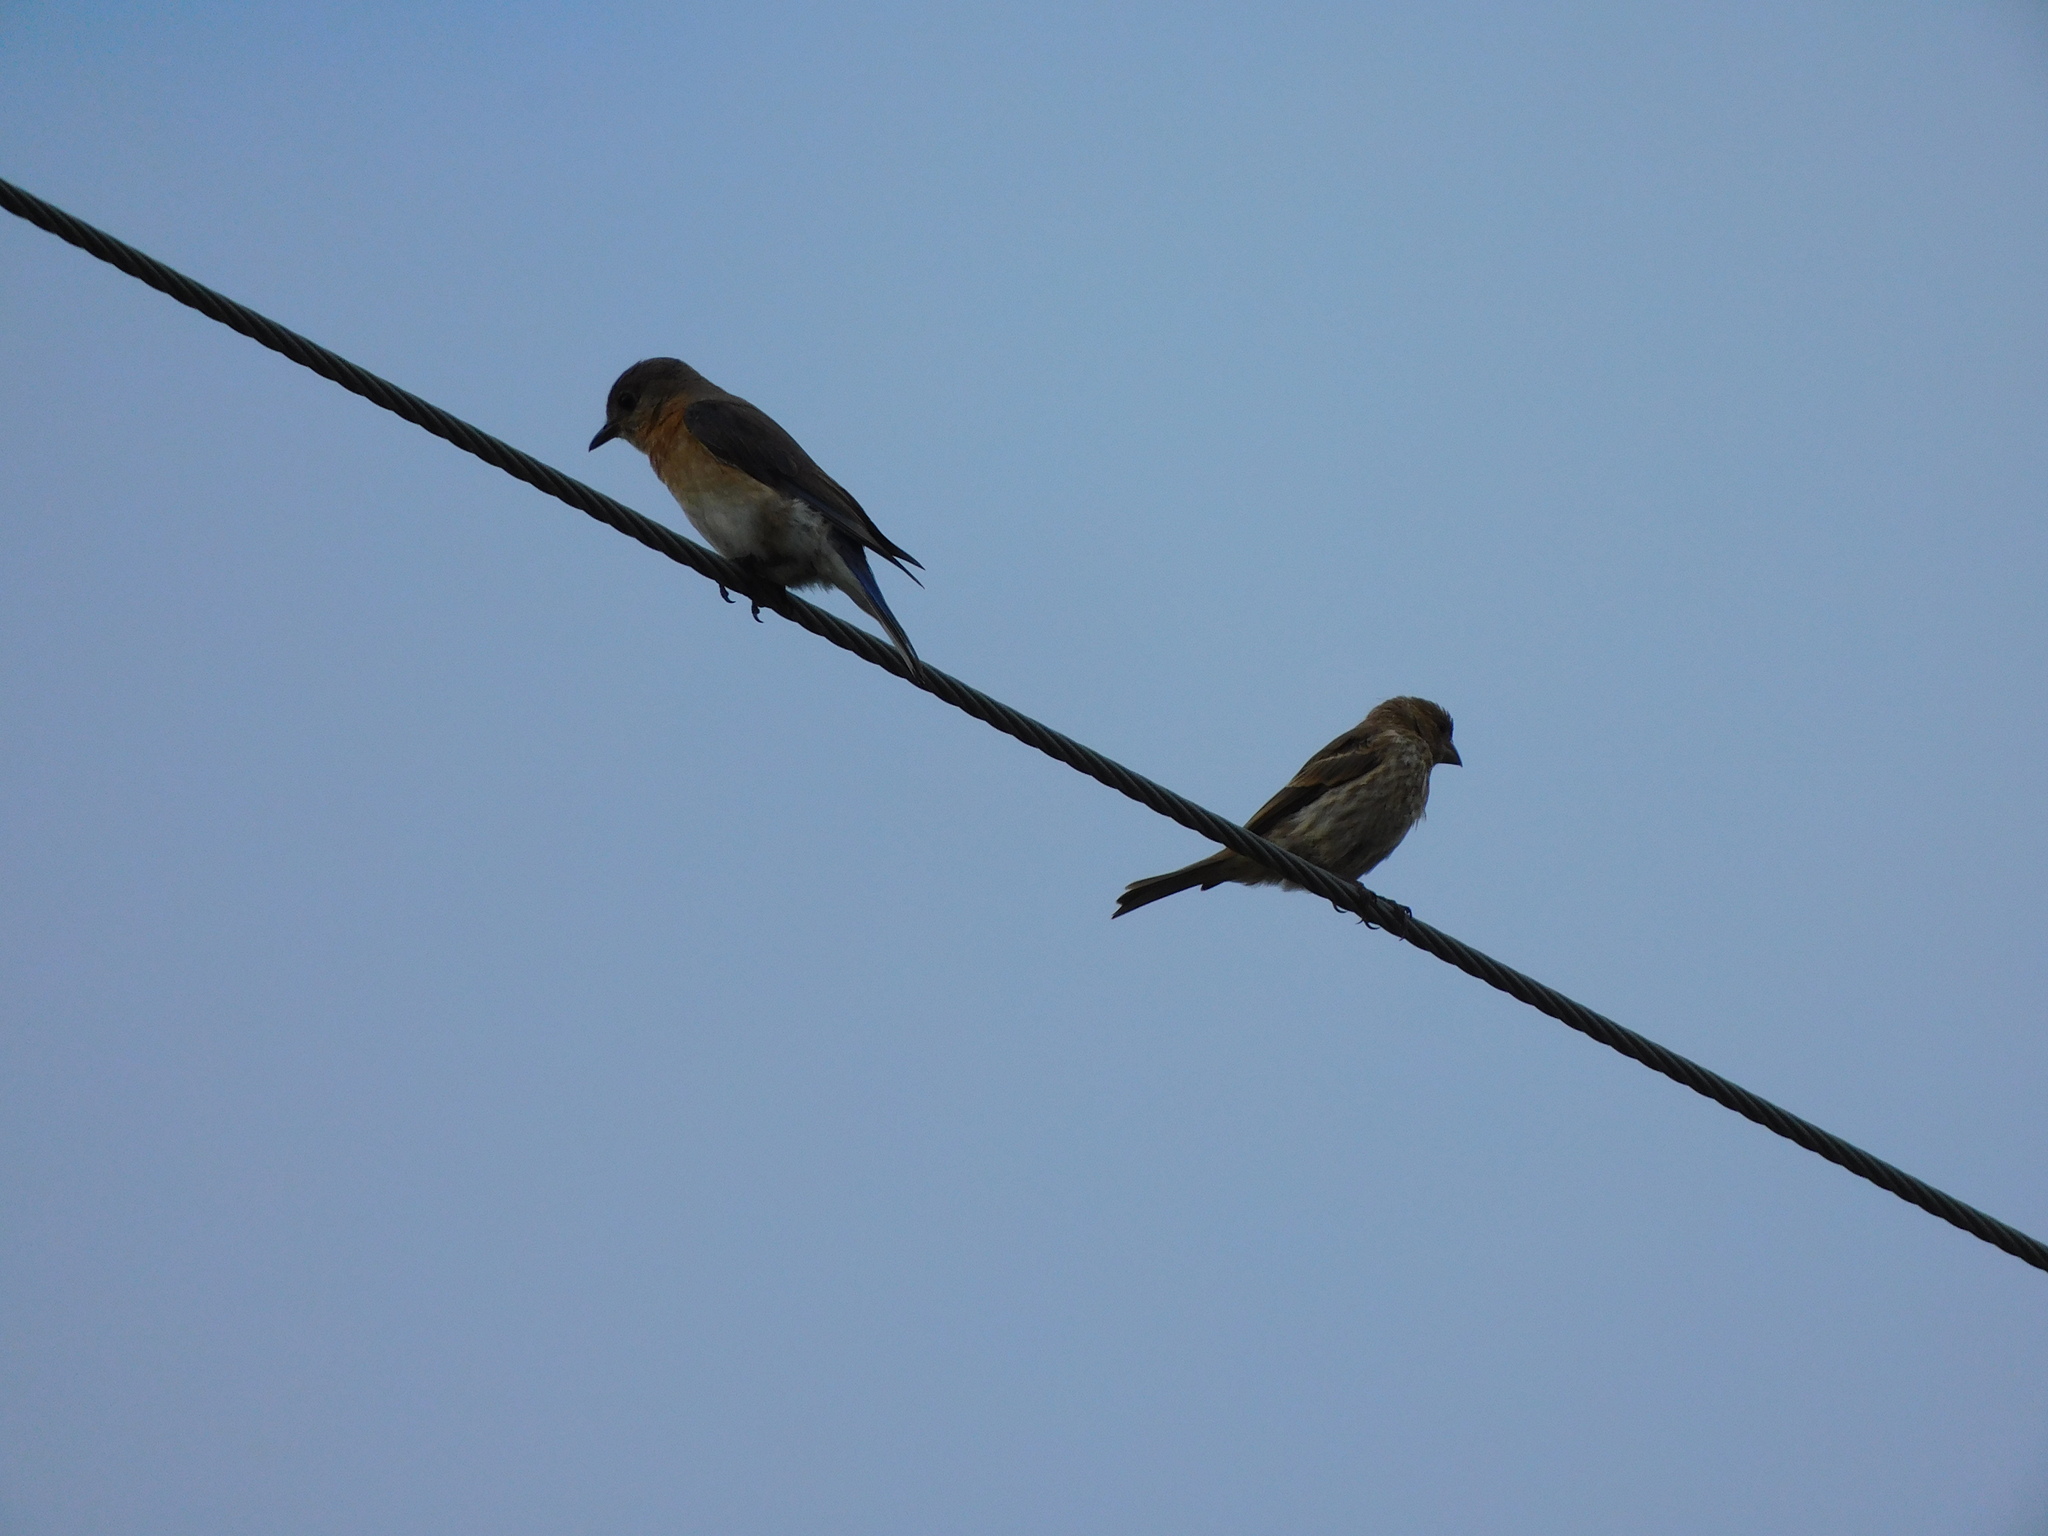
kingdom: Animalia
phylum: Chordata
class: Aves
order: Passeriformes
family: Turdidae
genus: Sialia
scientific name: Sialia sialis
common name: Eastern bluebird
